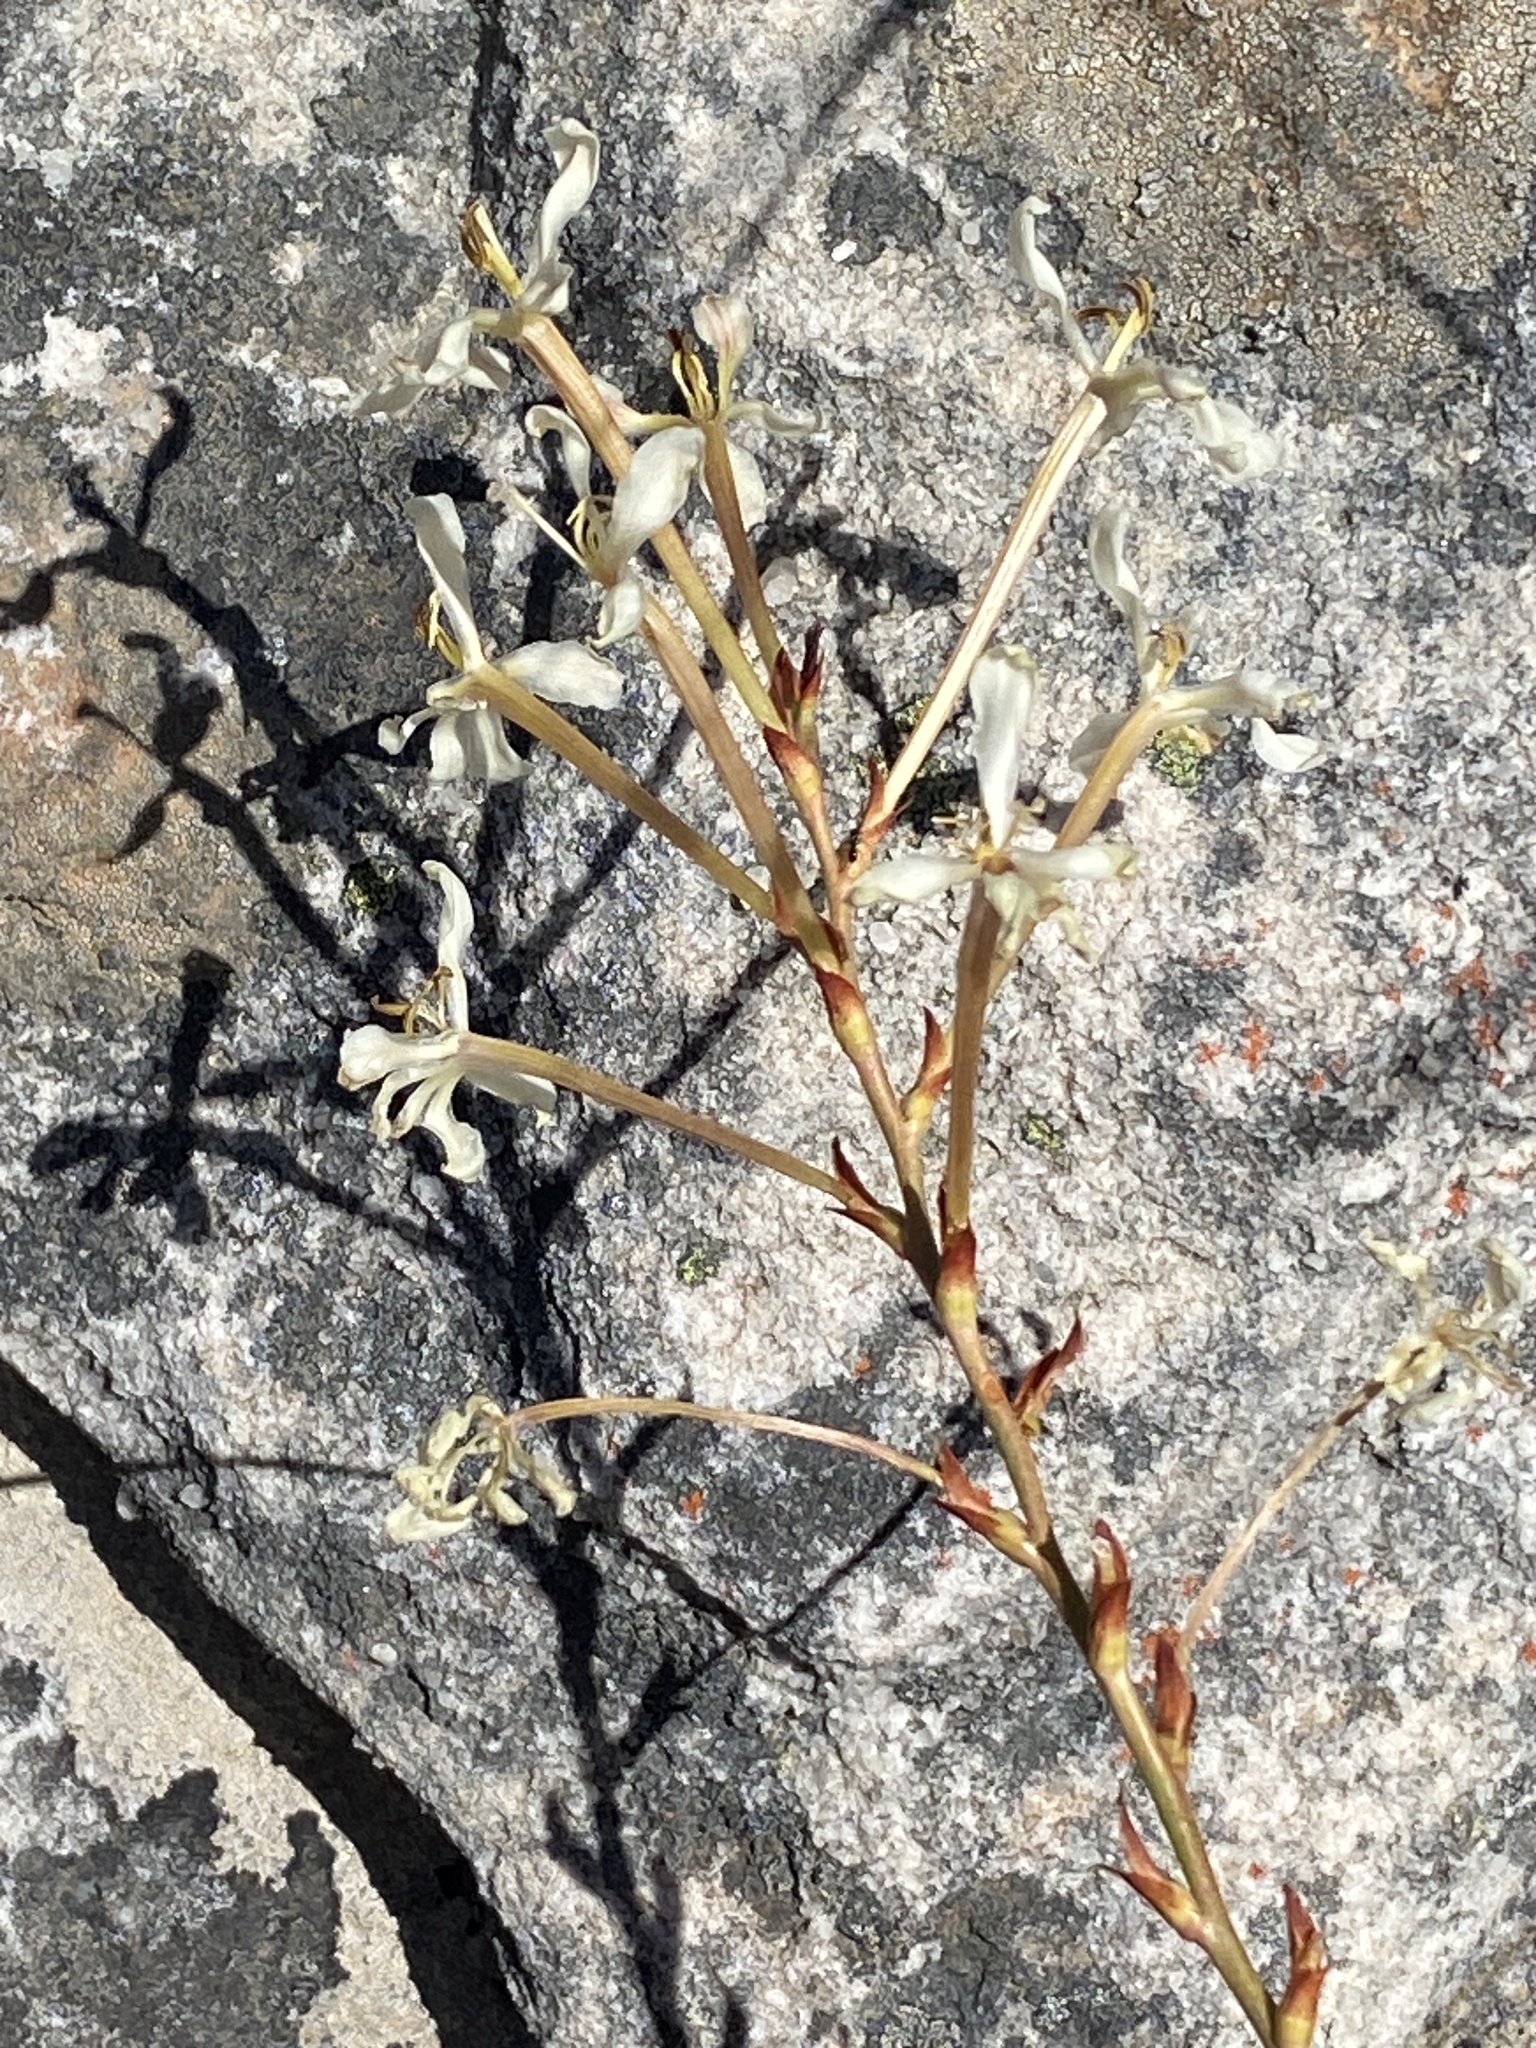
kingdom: Plantae
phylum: Tracheophyta
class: Liliopsida
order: Asparagales
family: Iridaceae
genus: Tritoniopsis
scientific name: Tritoniopsis nervosa
